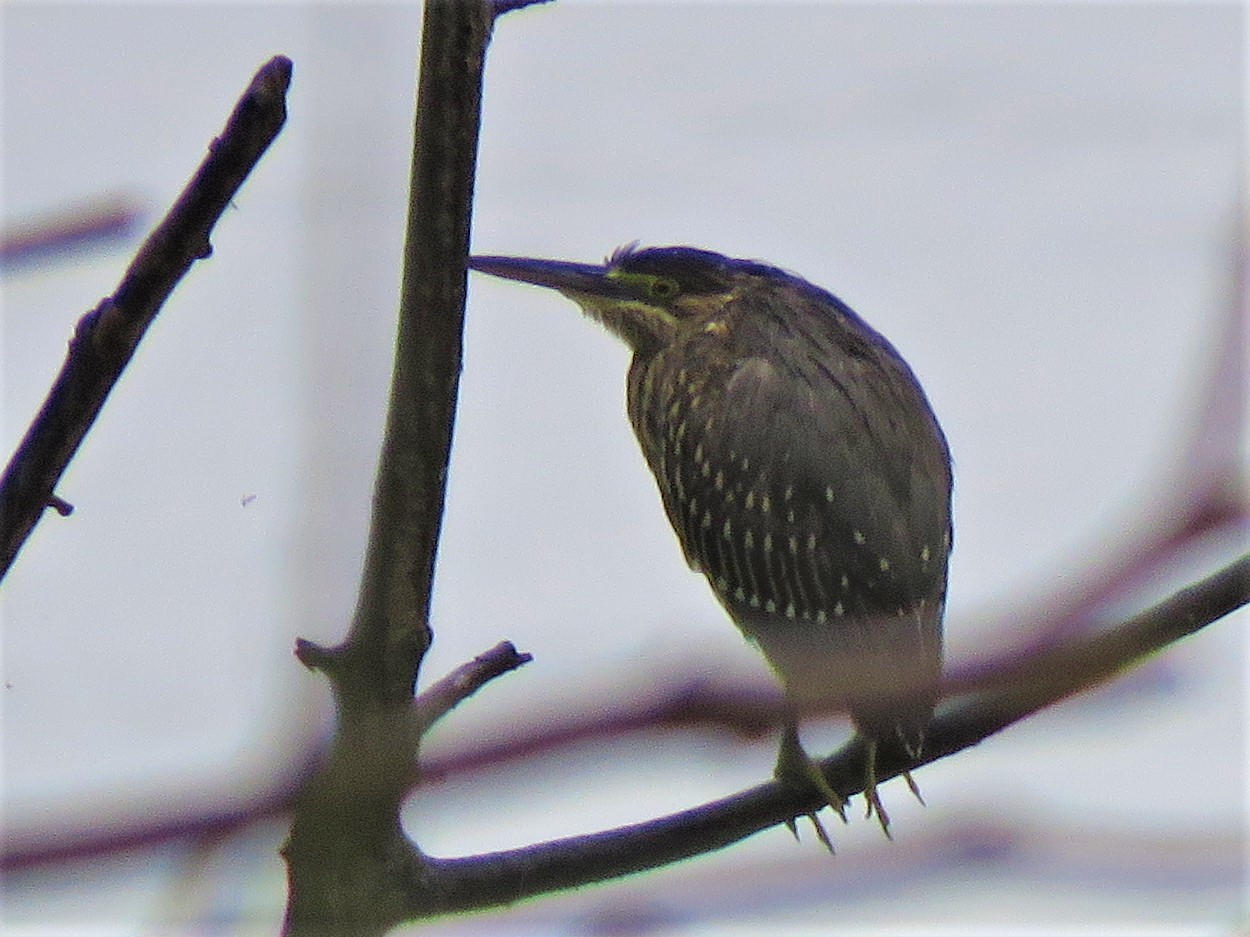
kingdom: Animalia
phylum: Chordata
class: Aves
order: Pelecaniformes
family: Ardeidae
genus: Butorides
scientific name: Butorides striata
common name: Striated heron
